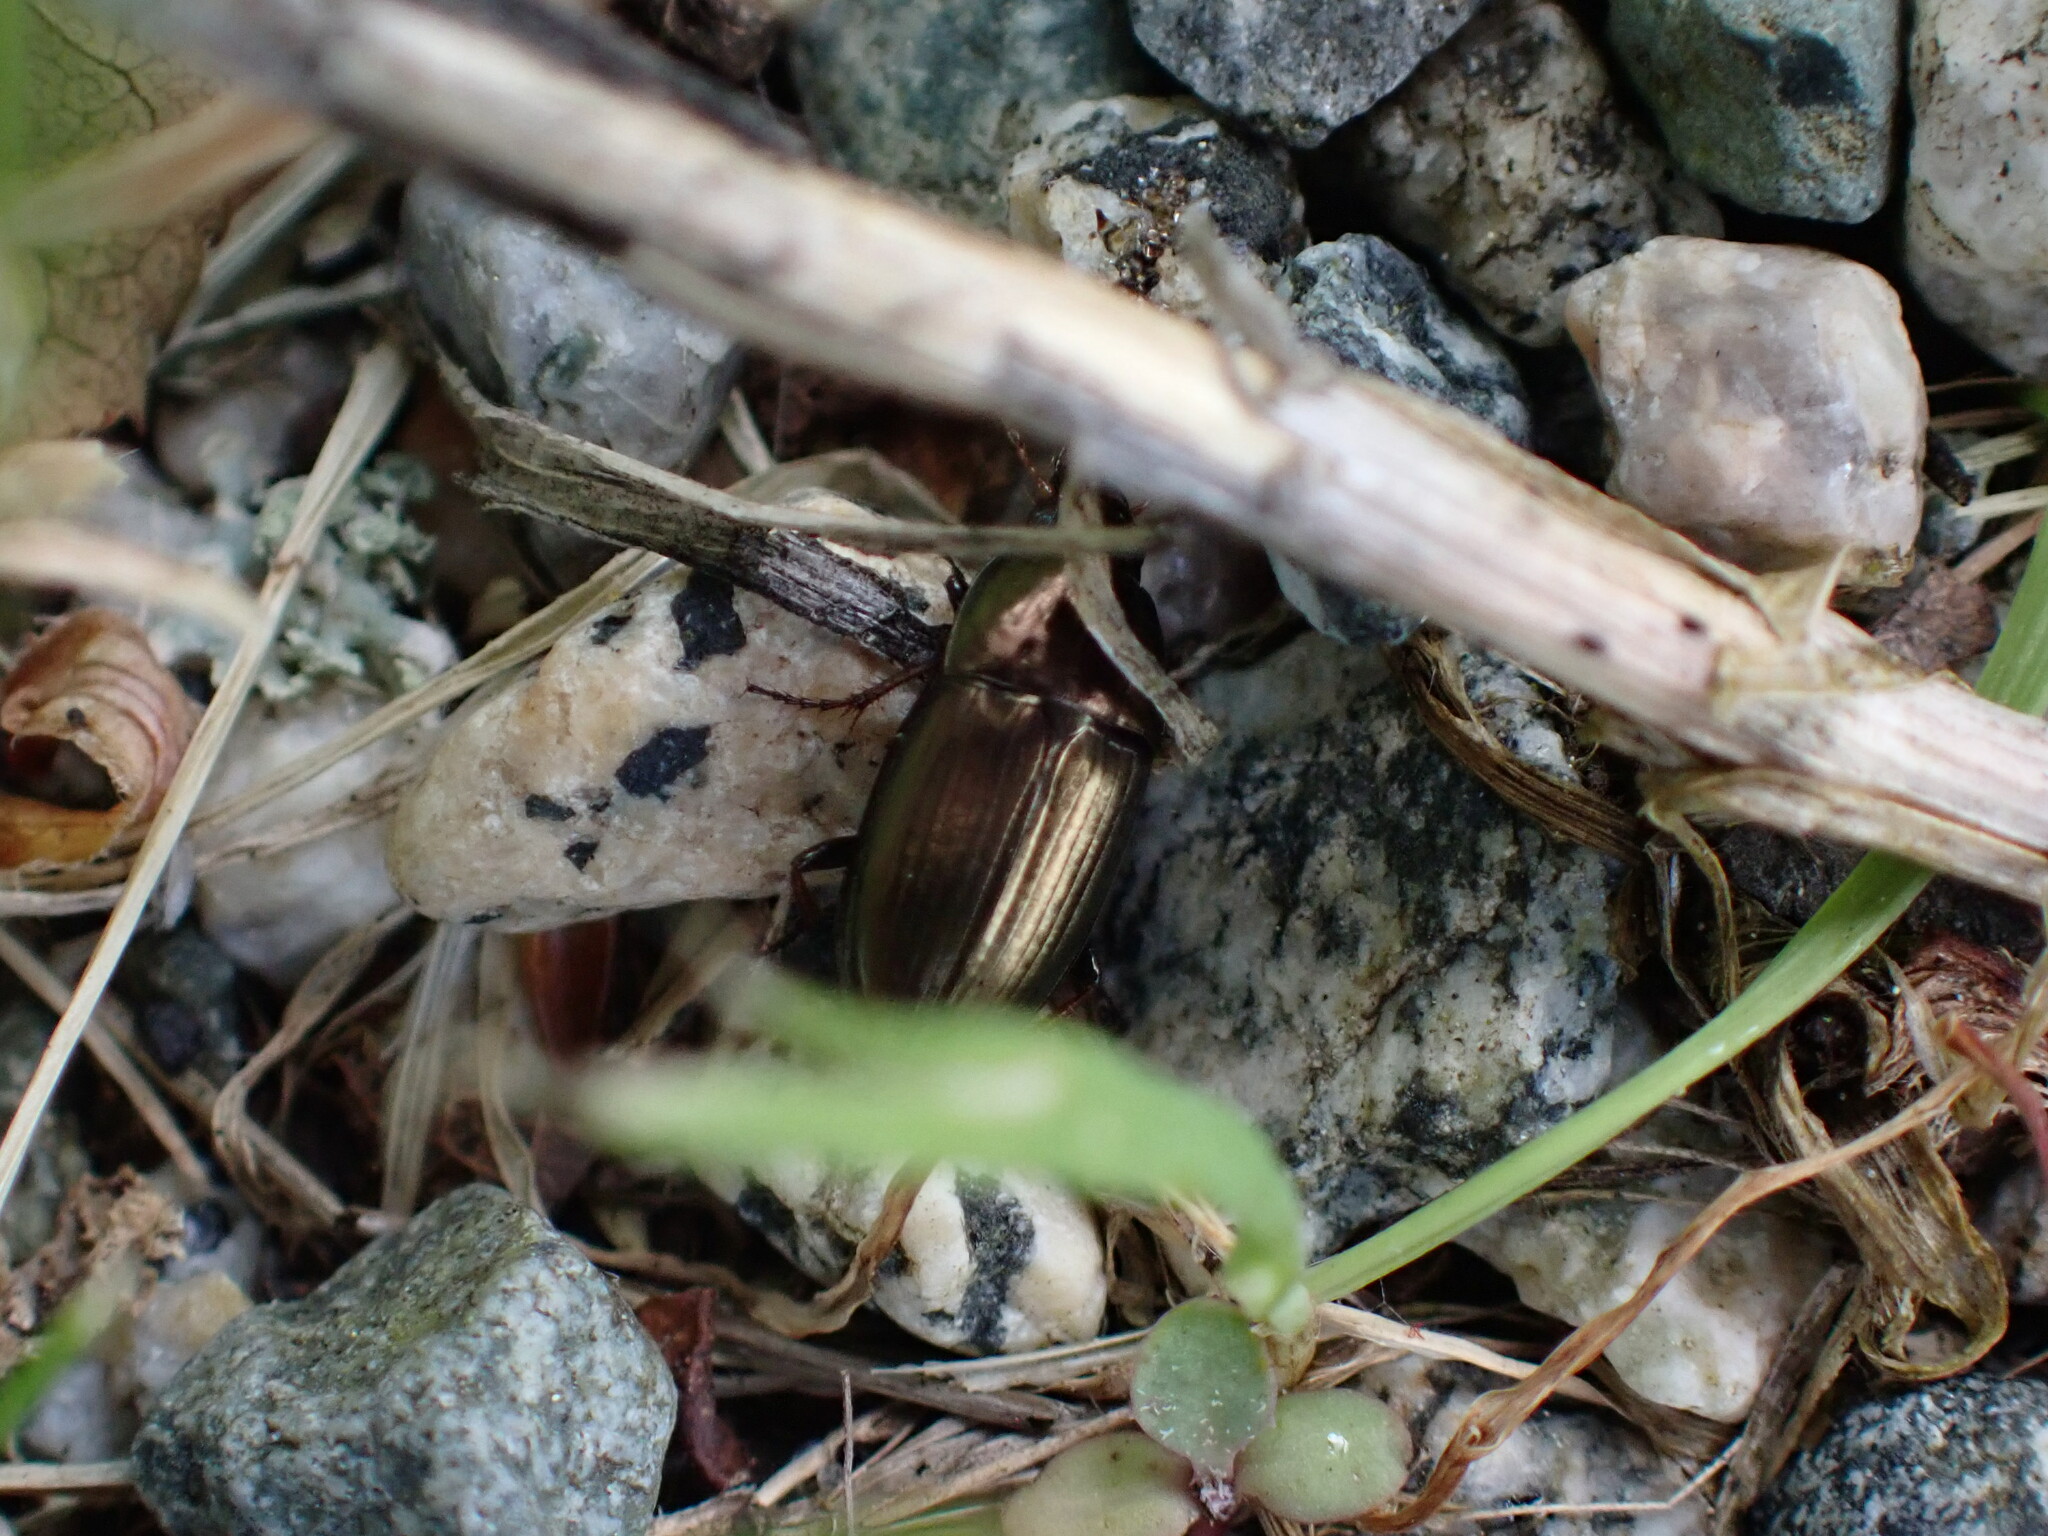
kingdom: Animalia
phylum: Arthropoda
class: Insecta
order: Coleoptera
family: Carabidae
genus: Amara
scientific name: Amara aenea
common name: Common sun beetle
